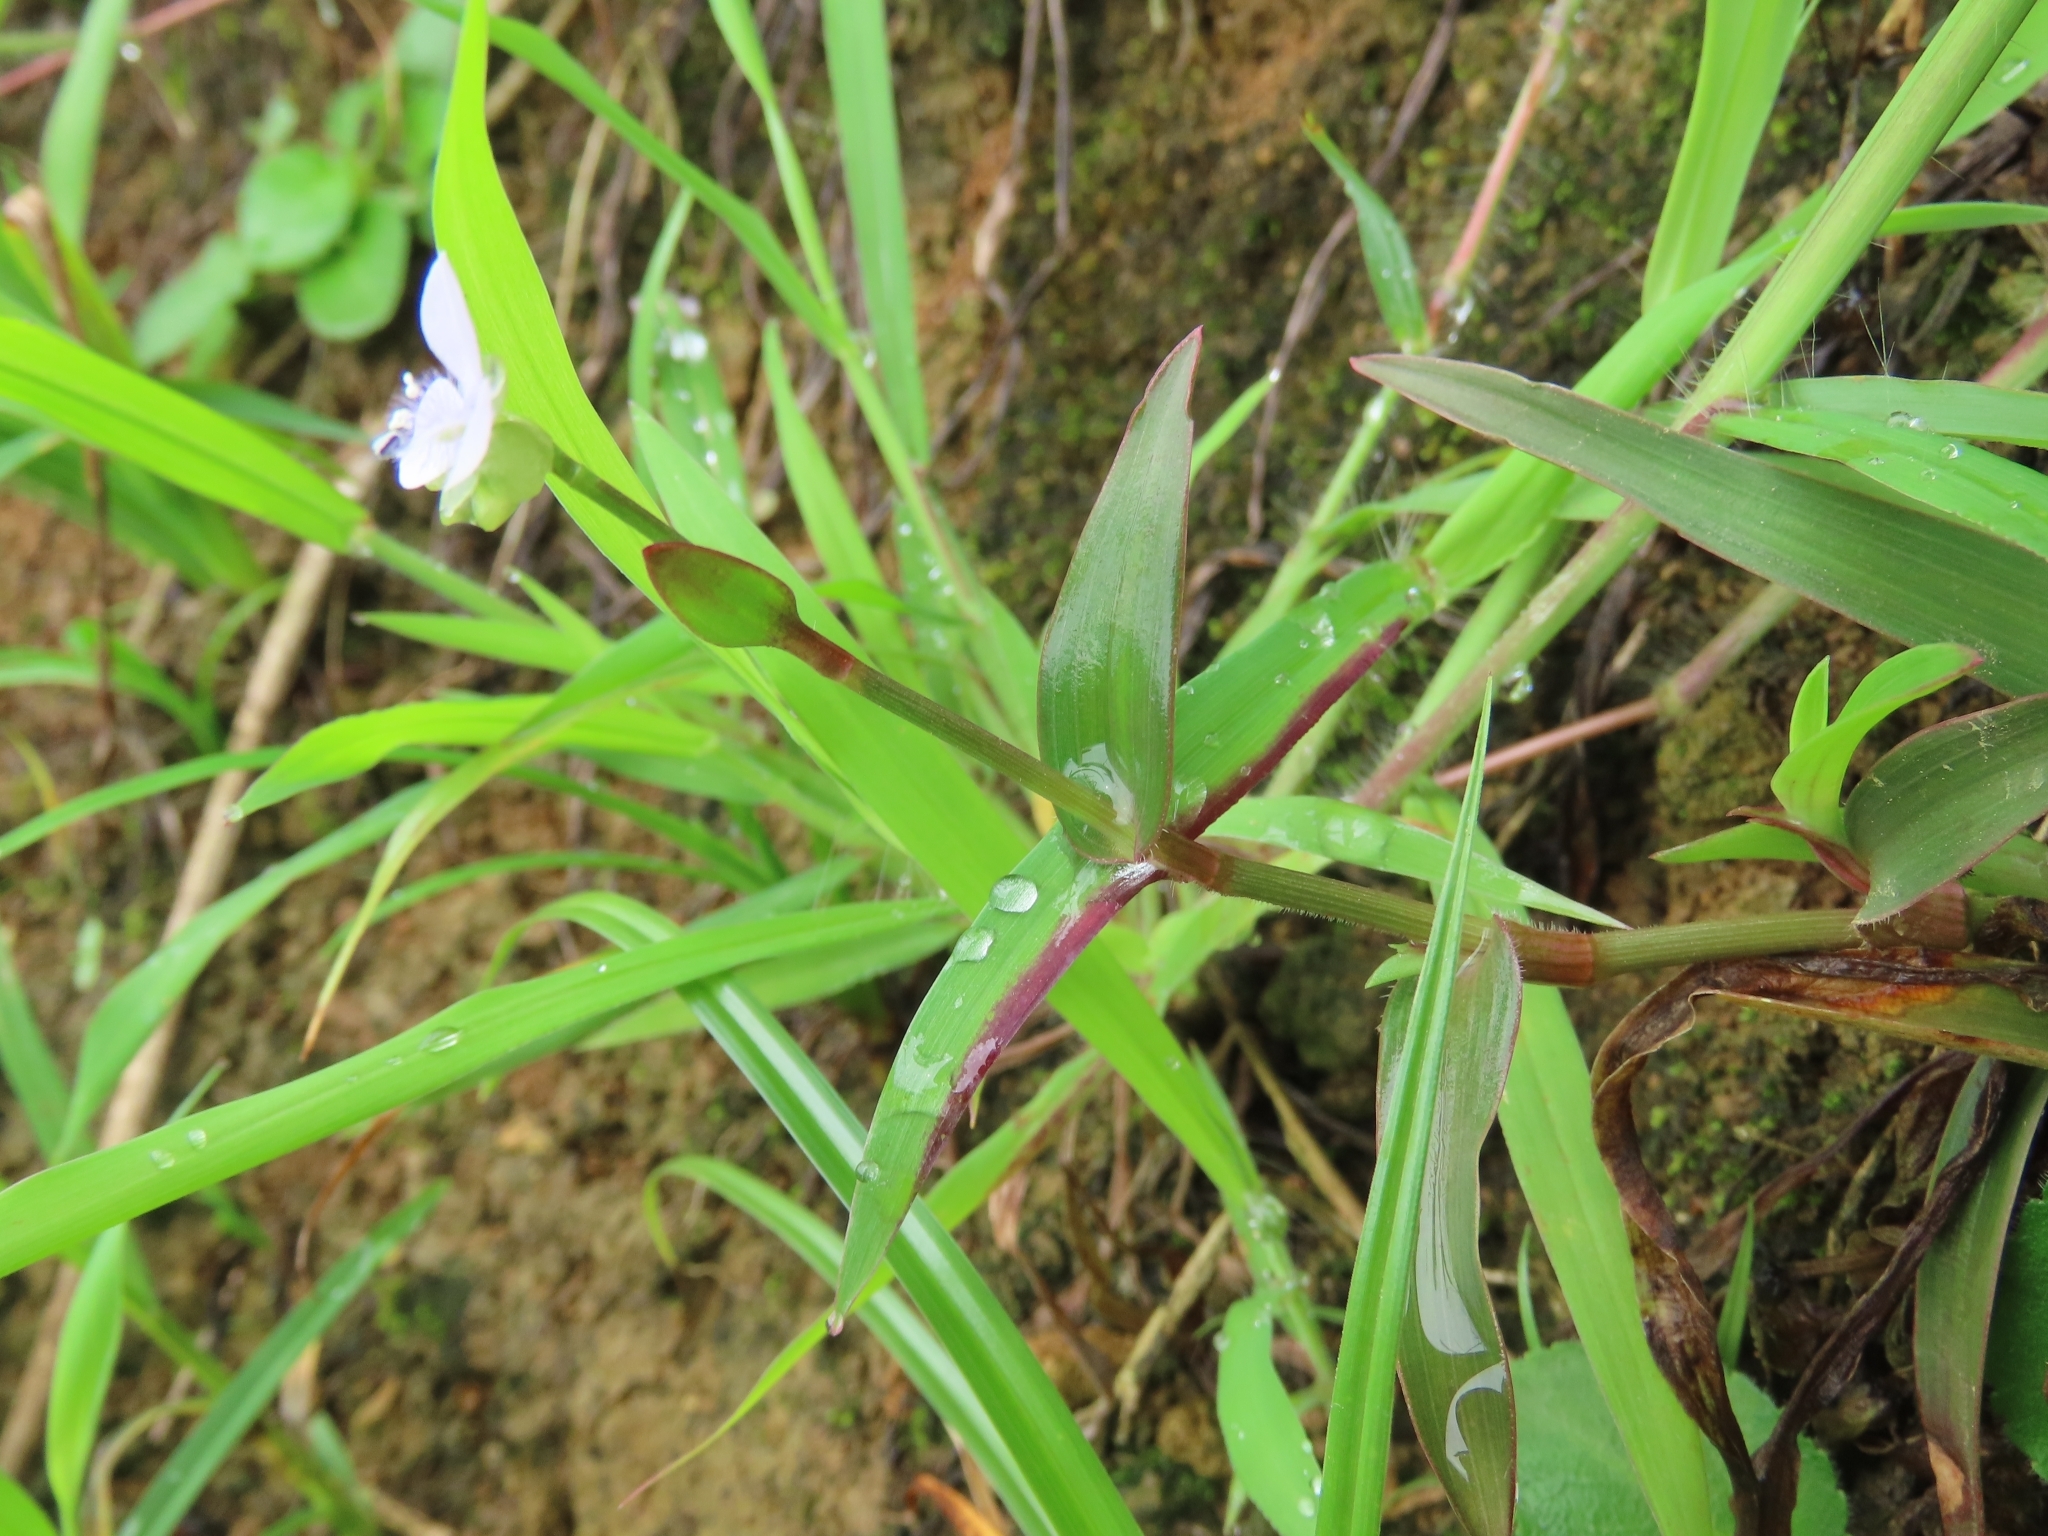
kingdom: Plantae
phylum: Tracheophyta
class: Liliopsida
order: Commelinales
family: Commelinaceae
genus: Murdannia
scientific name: Murdannia loriformis
